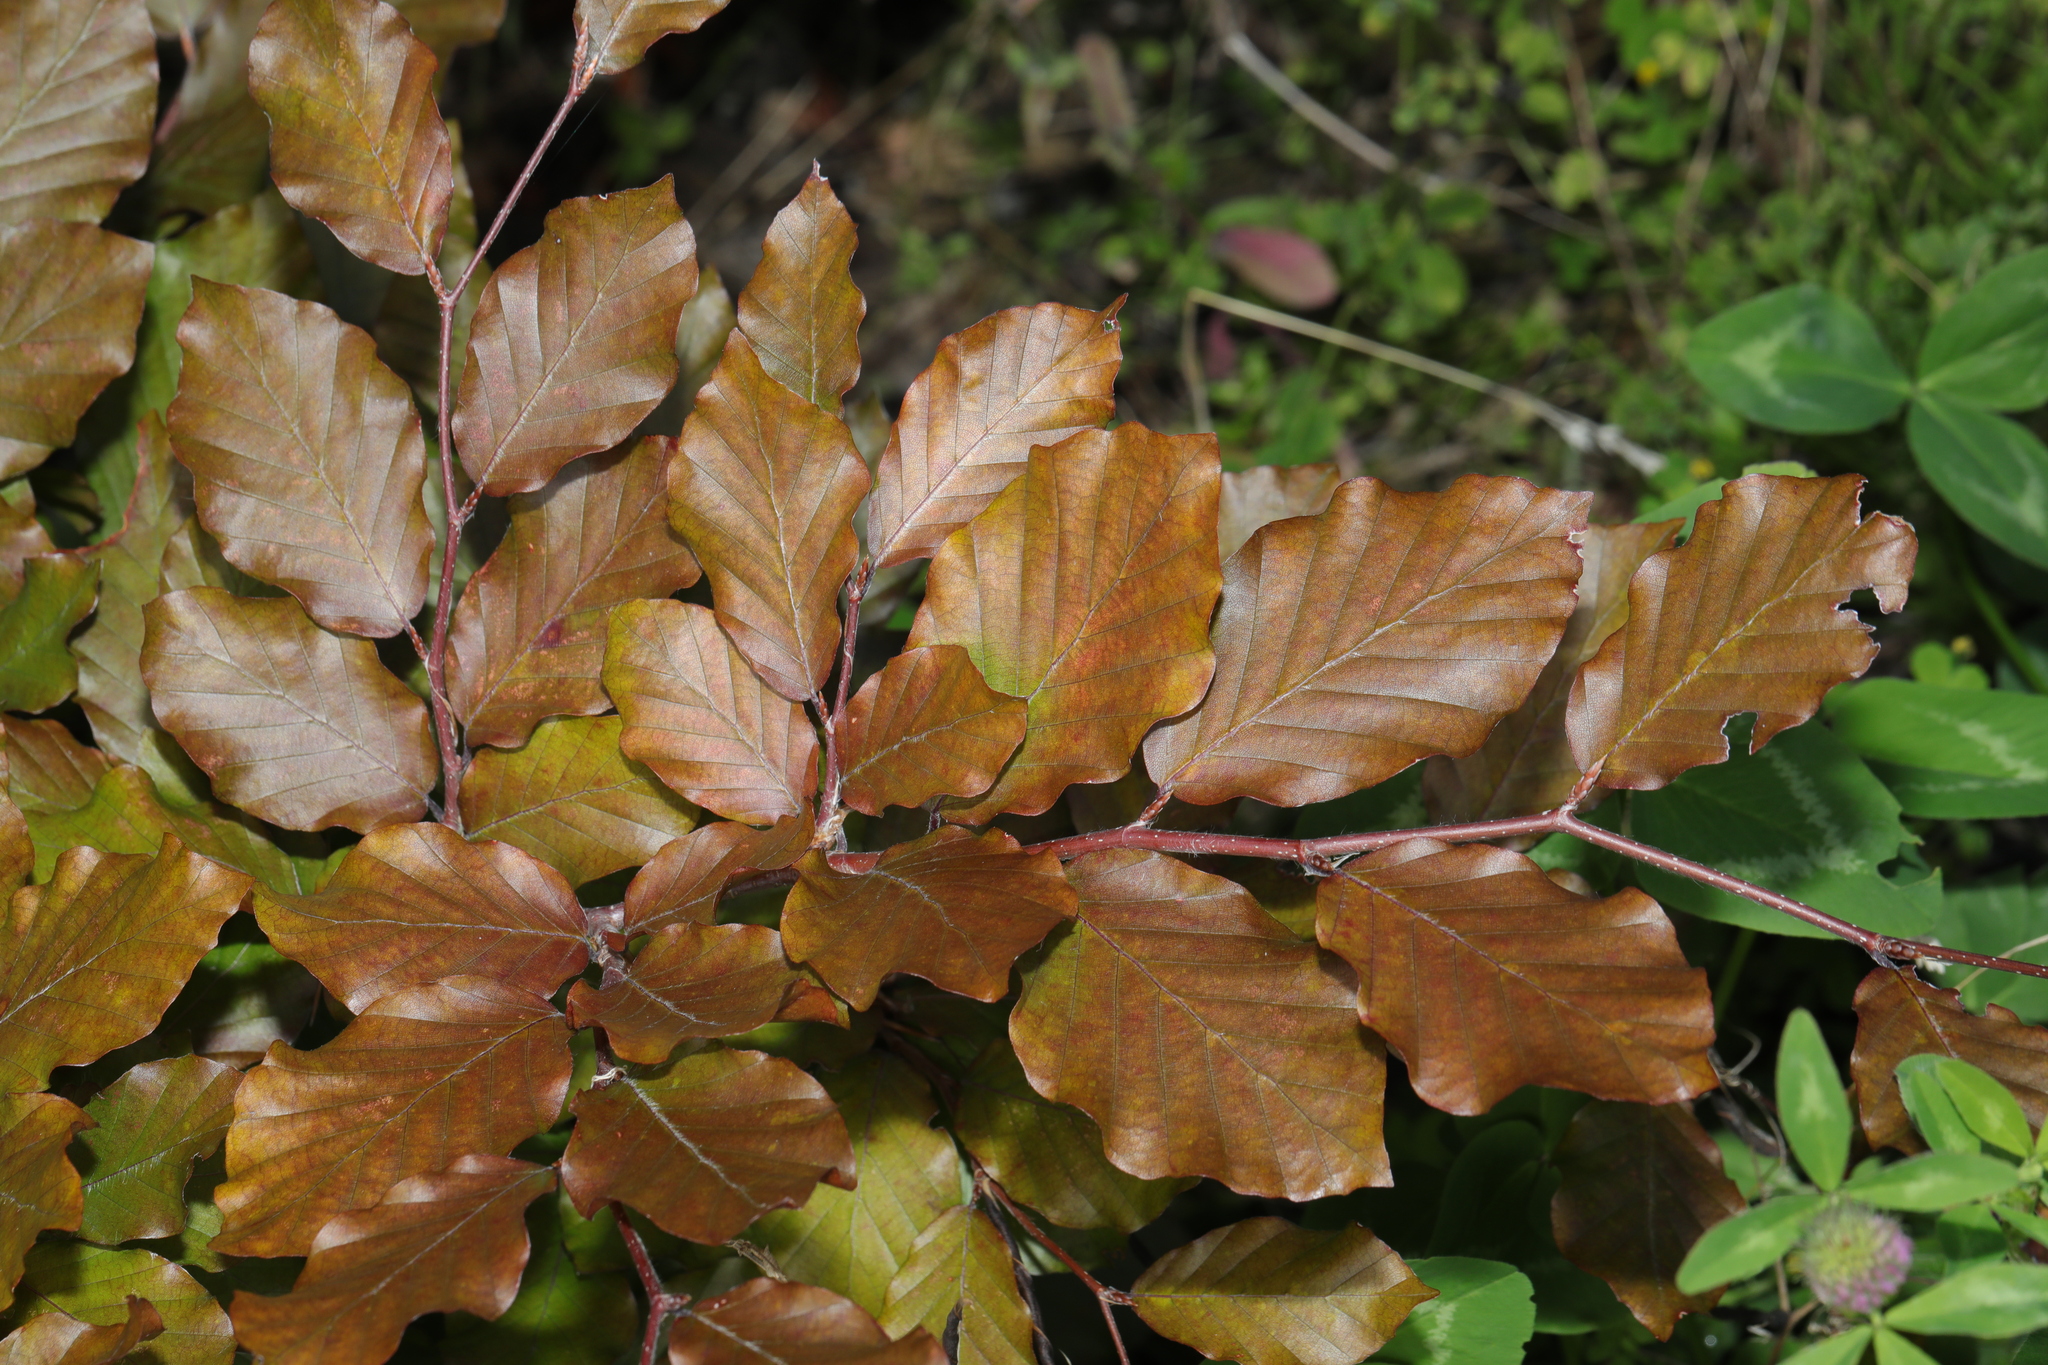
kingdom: Plantae
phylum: Tracheophyta
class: Magnoliopsida
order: Fagales
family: Fagaceae
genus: Fagus
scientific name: Fagus sylvatica
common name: Beech
